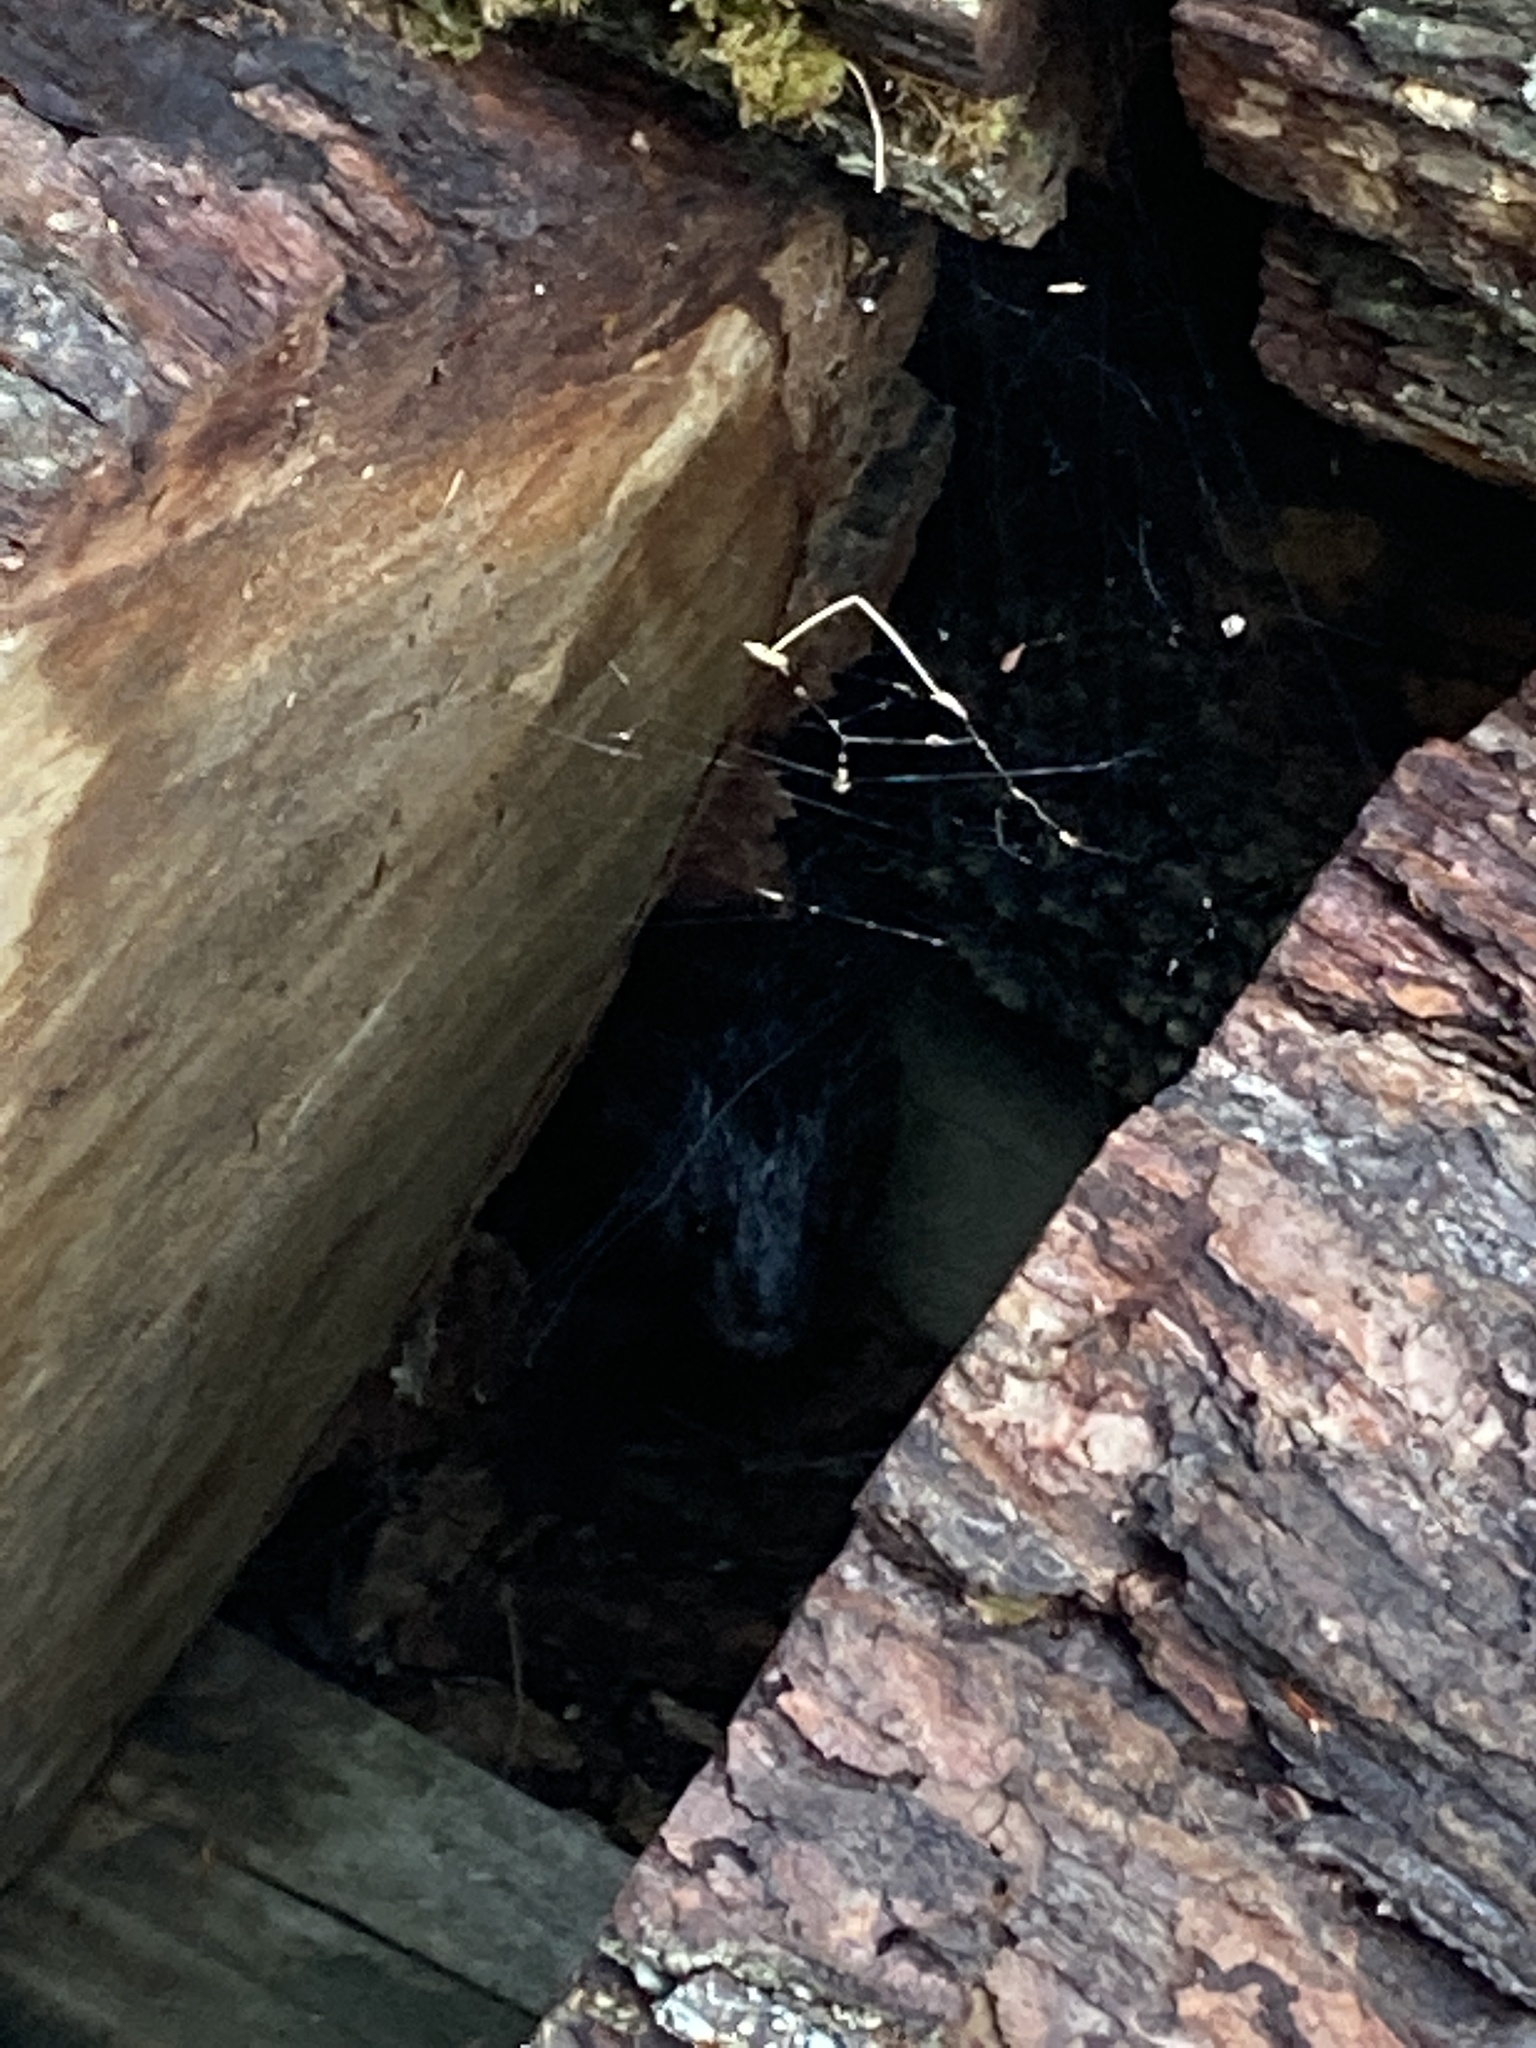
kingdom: Animalia
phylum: Chordata
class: Mammalia
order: Carnivora
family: Mustelidae
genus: Mustela
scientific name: Mustela
